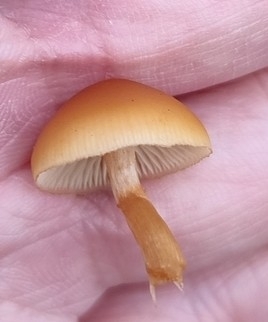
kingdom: Fungi
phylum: Basidiomycota
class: Agaricomycetes
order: Agaricales
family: Hymenogastraceae
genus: Galerina
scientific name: Galerina marginata
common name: Funeral bell
